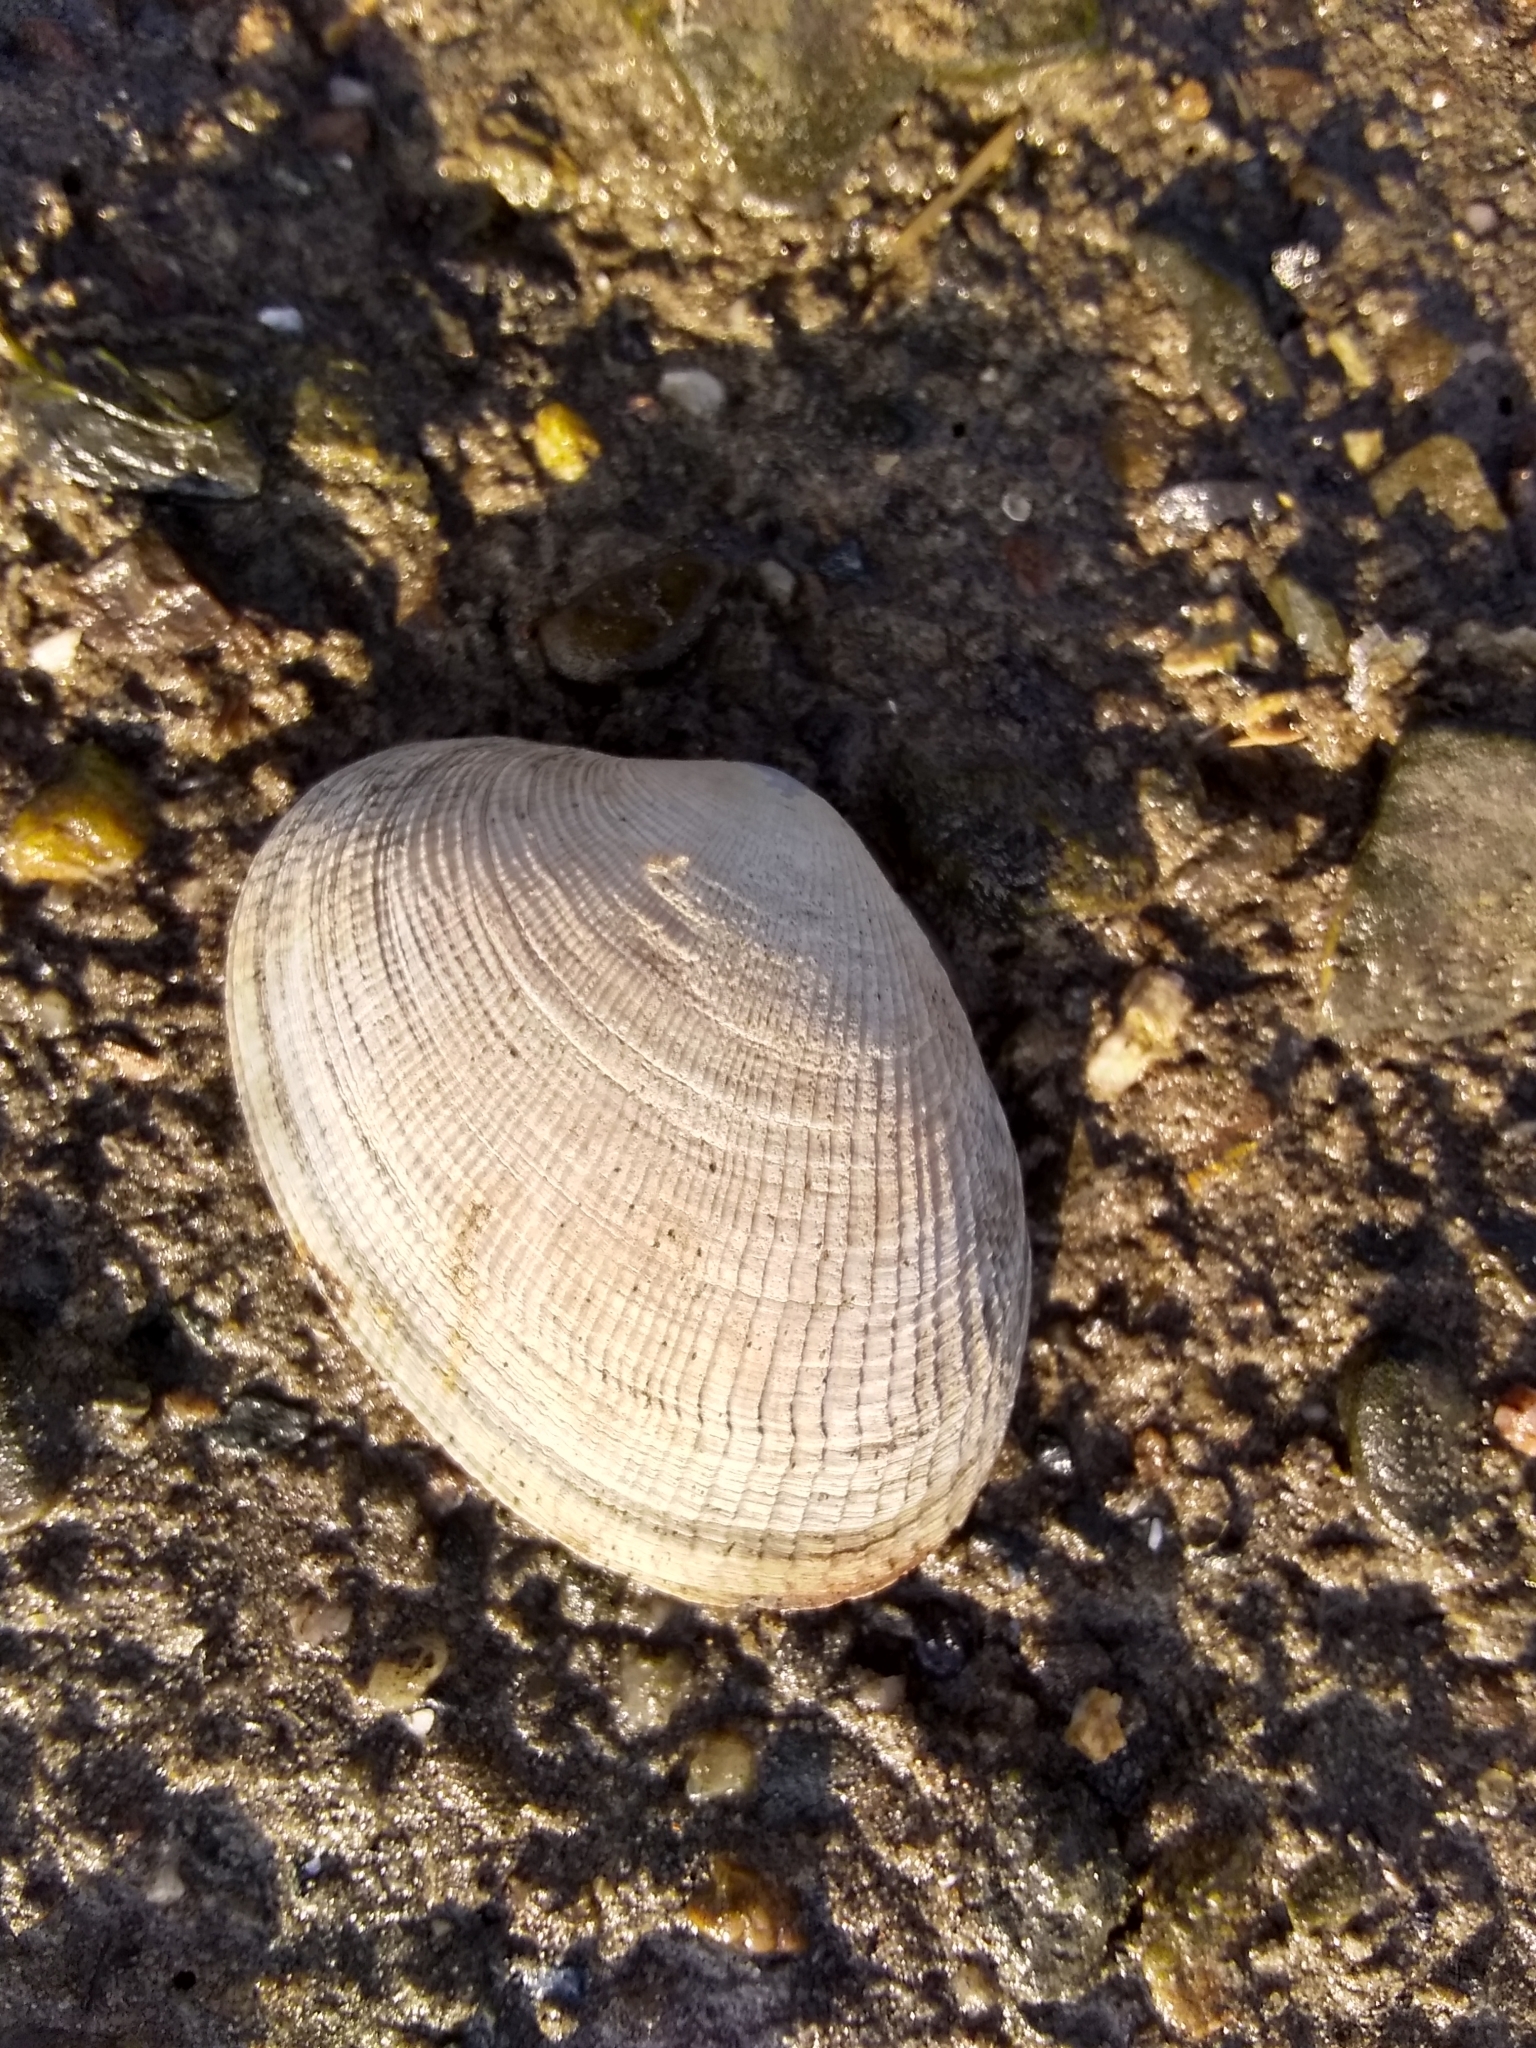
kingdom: Animalia
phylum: Mollusca
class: Bivalvia
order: Venerida
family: Veneridae
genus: Ruditapes
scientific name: Ruditapes philippinarum
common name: Manila clam
